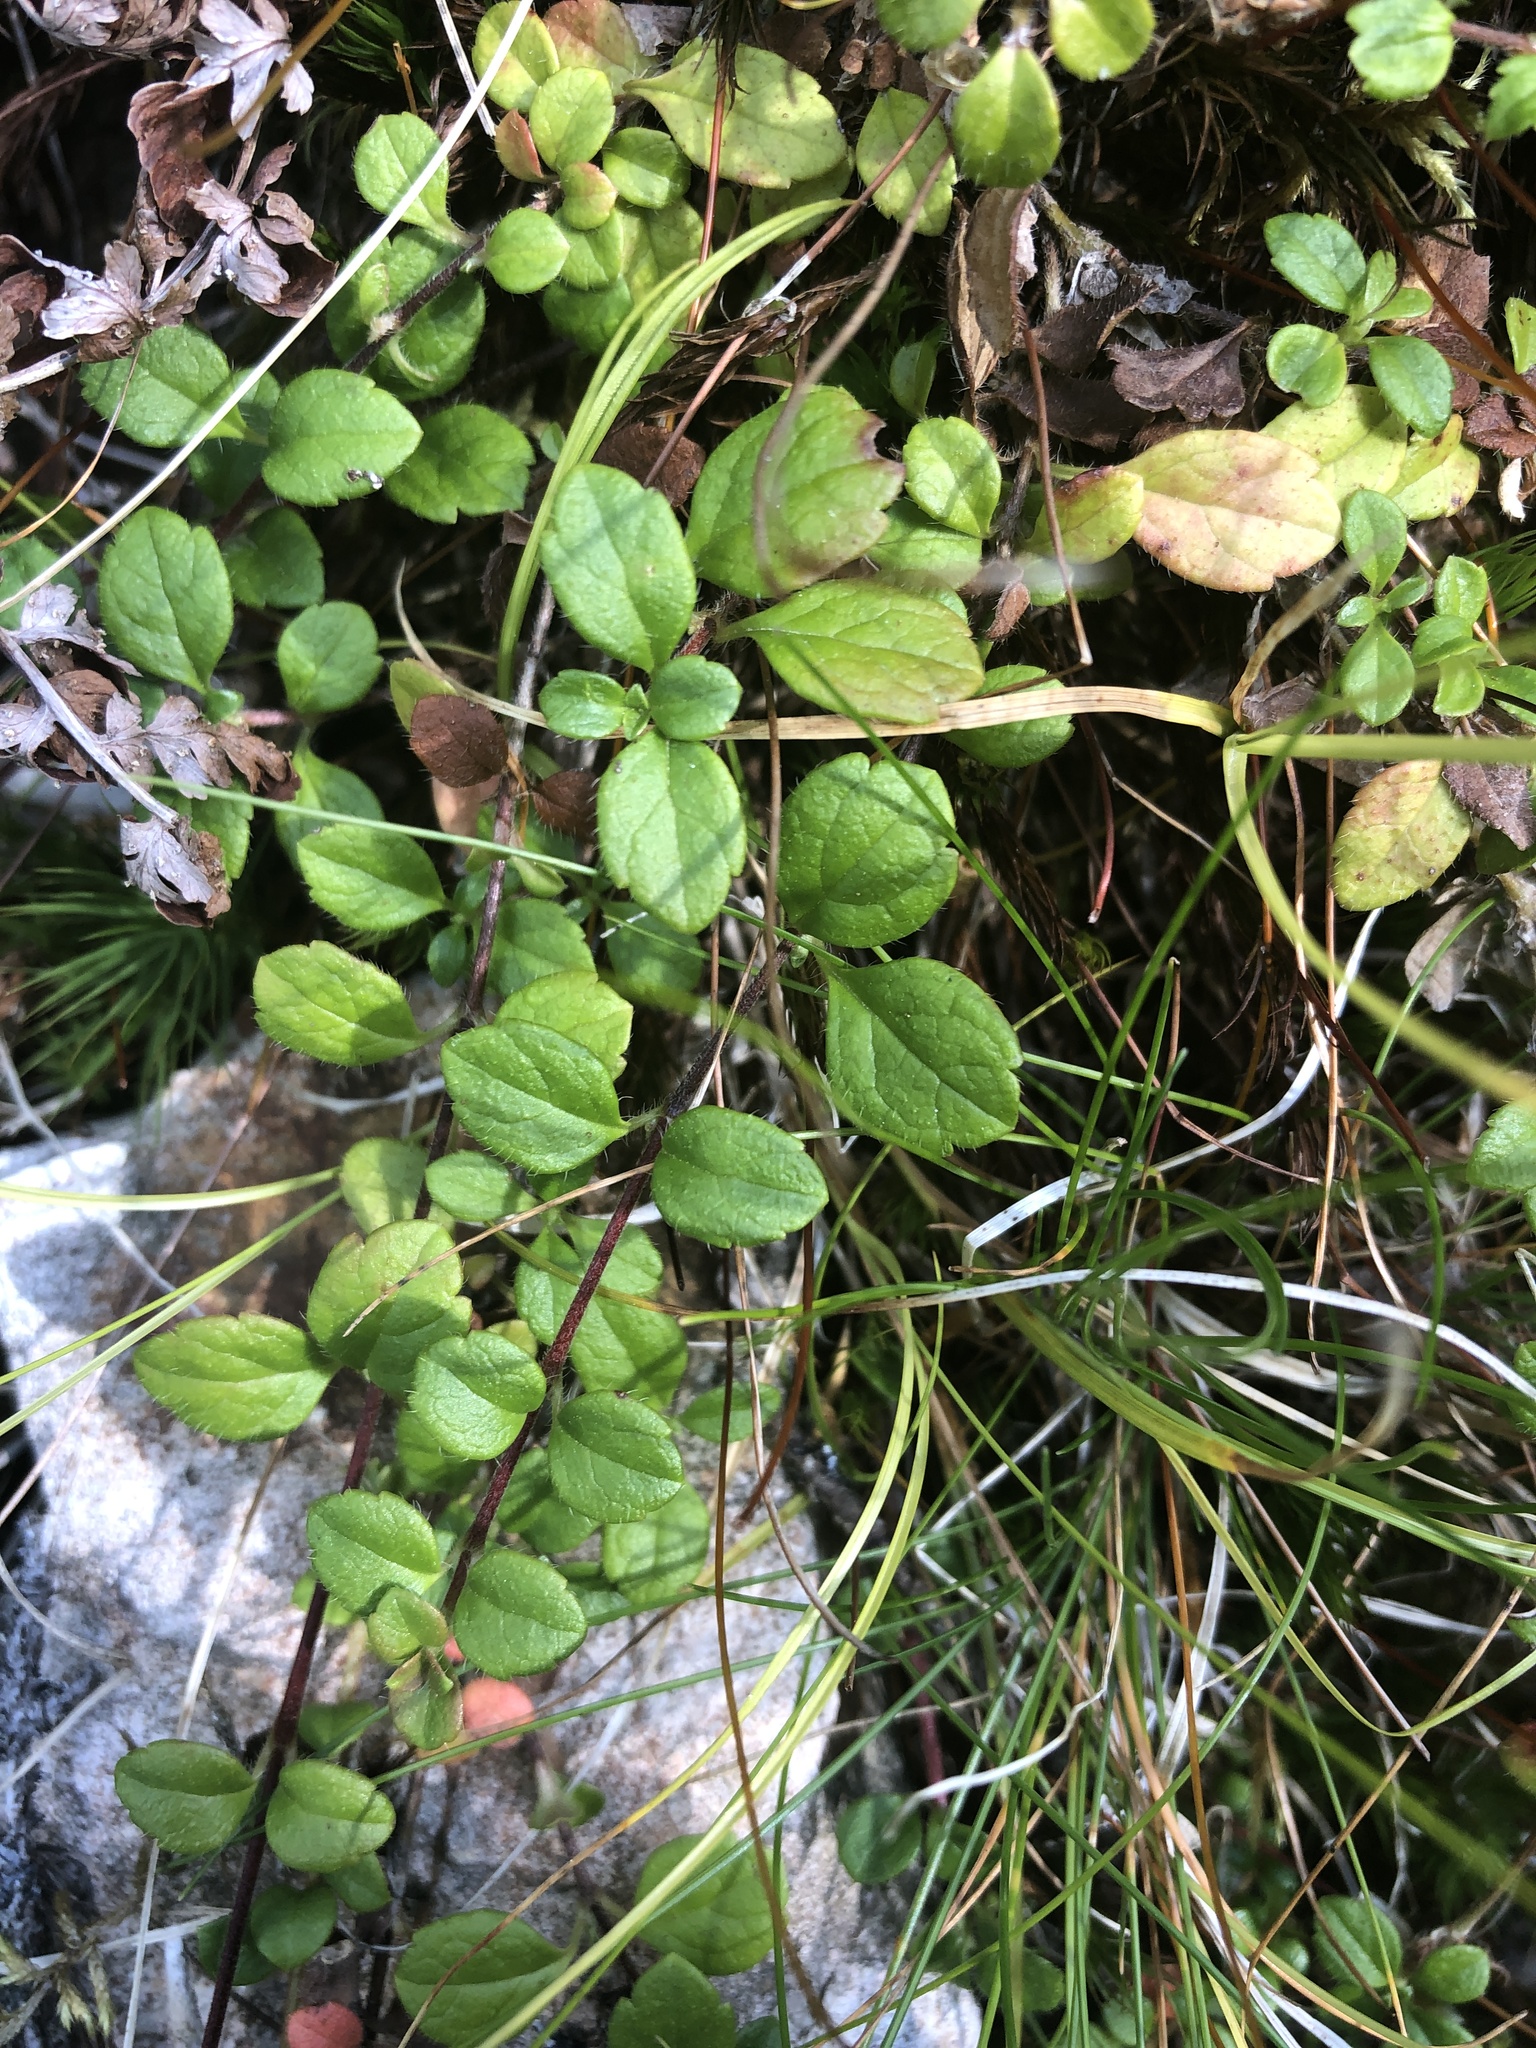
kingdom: Plantae
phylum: Tracheophyta
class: Magnoliopsida
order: Dipsacales
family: Caprifoliaceae
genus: Linnaea
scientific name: Linnaea borealis
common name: Twinflower
